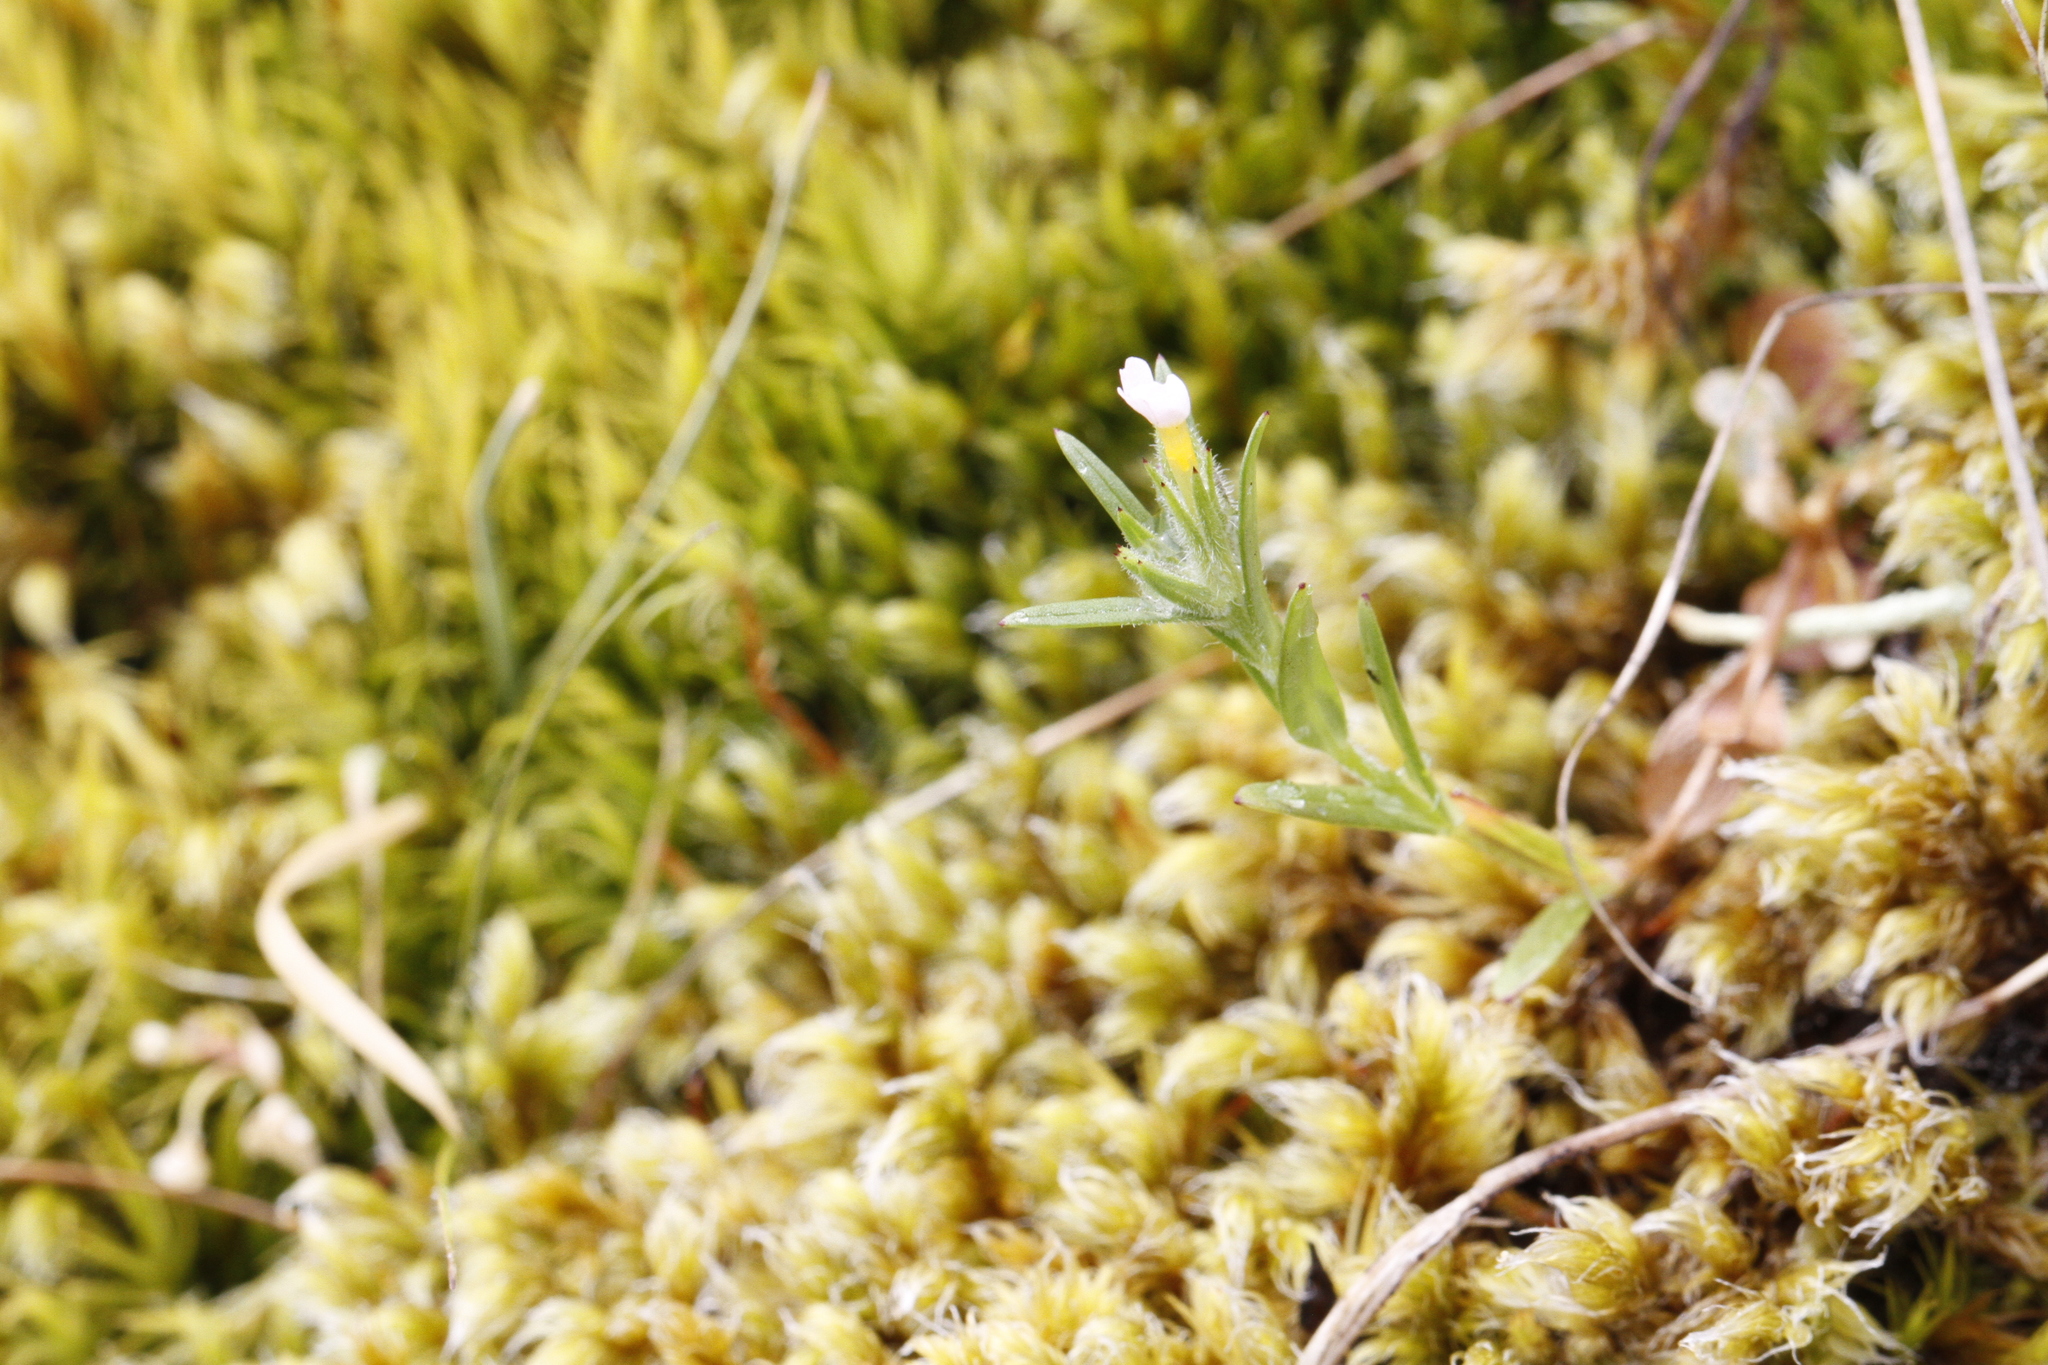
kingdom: Plantae
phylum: Tracheophyta
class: Magnoliopsida
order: Ericales
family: Polemoniaceae
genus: Phlox
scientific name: Phlox gracilis
